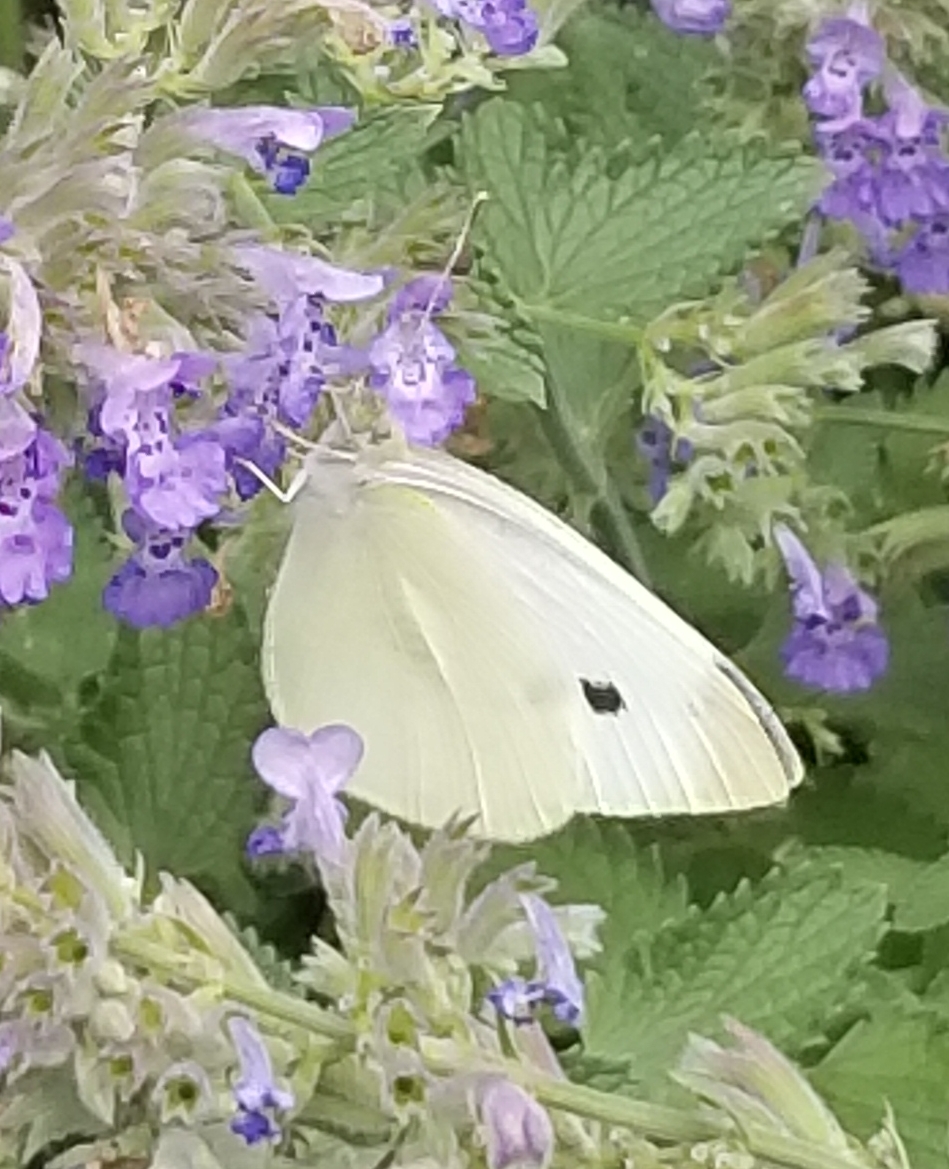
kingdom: Animalia
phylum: Arthropoda
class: Insecta
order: Lepidoptera
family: Pieridae
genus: Pieris
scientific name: Pieris rapae
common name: Small white
